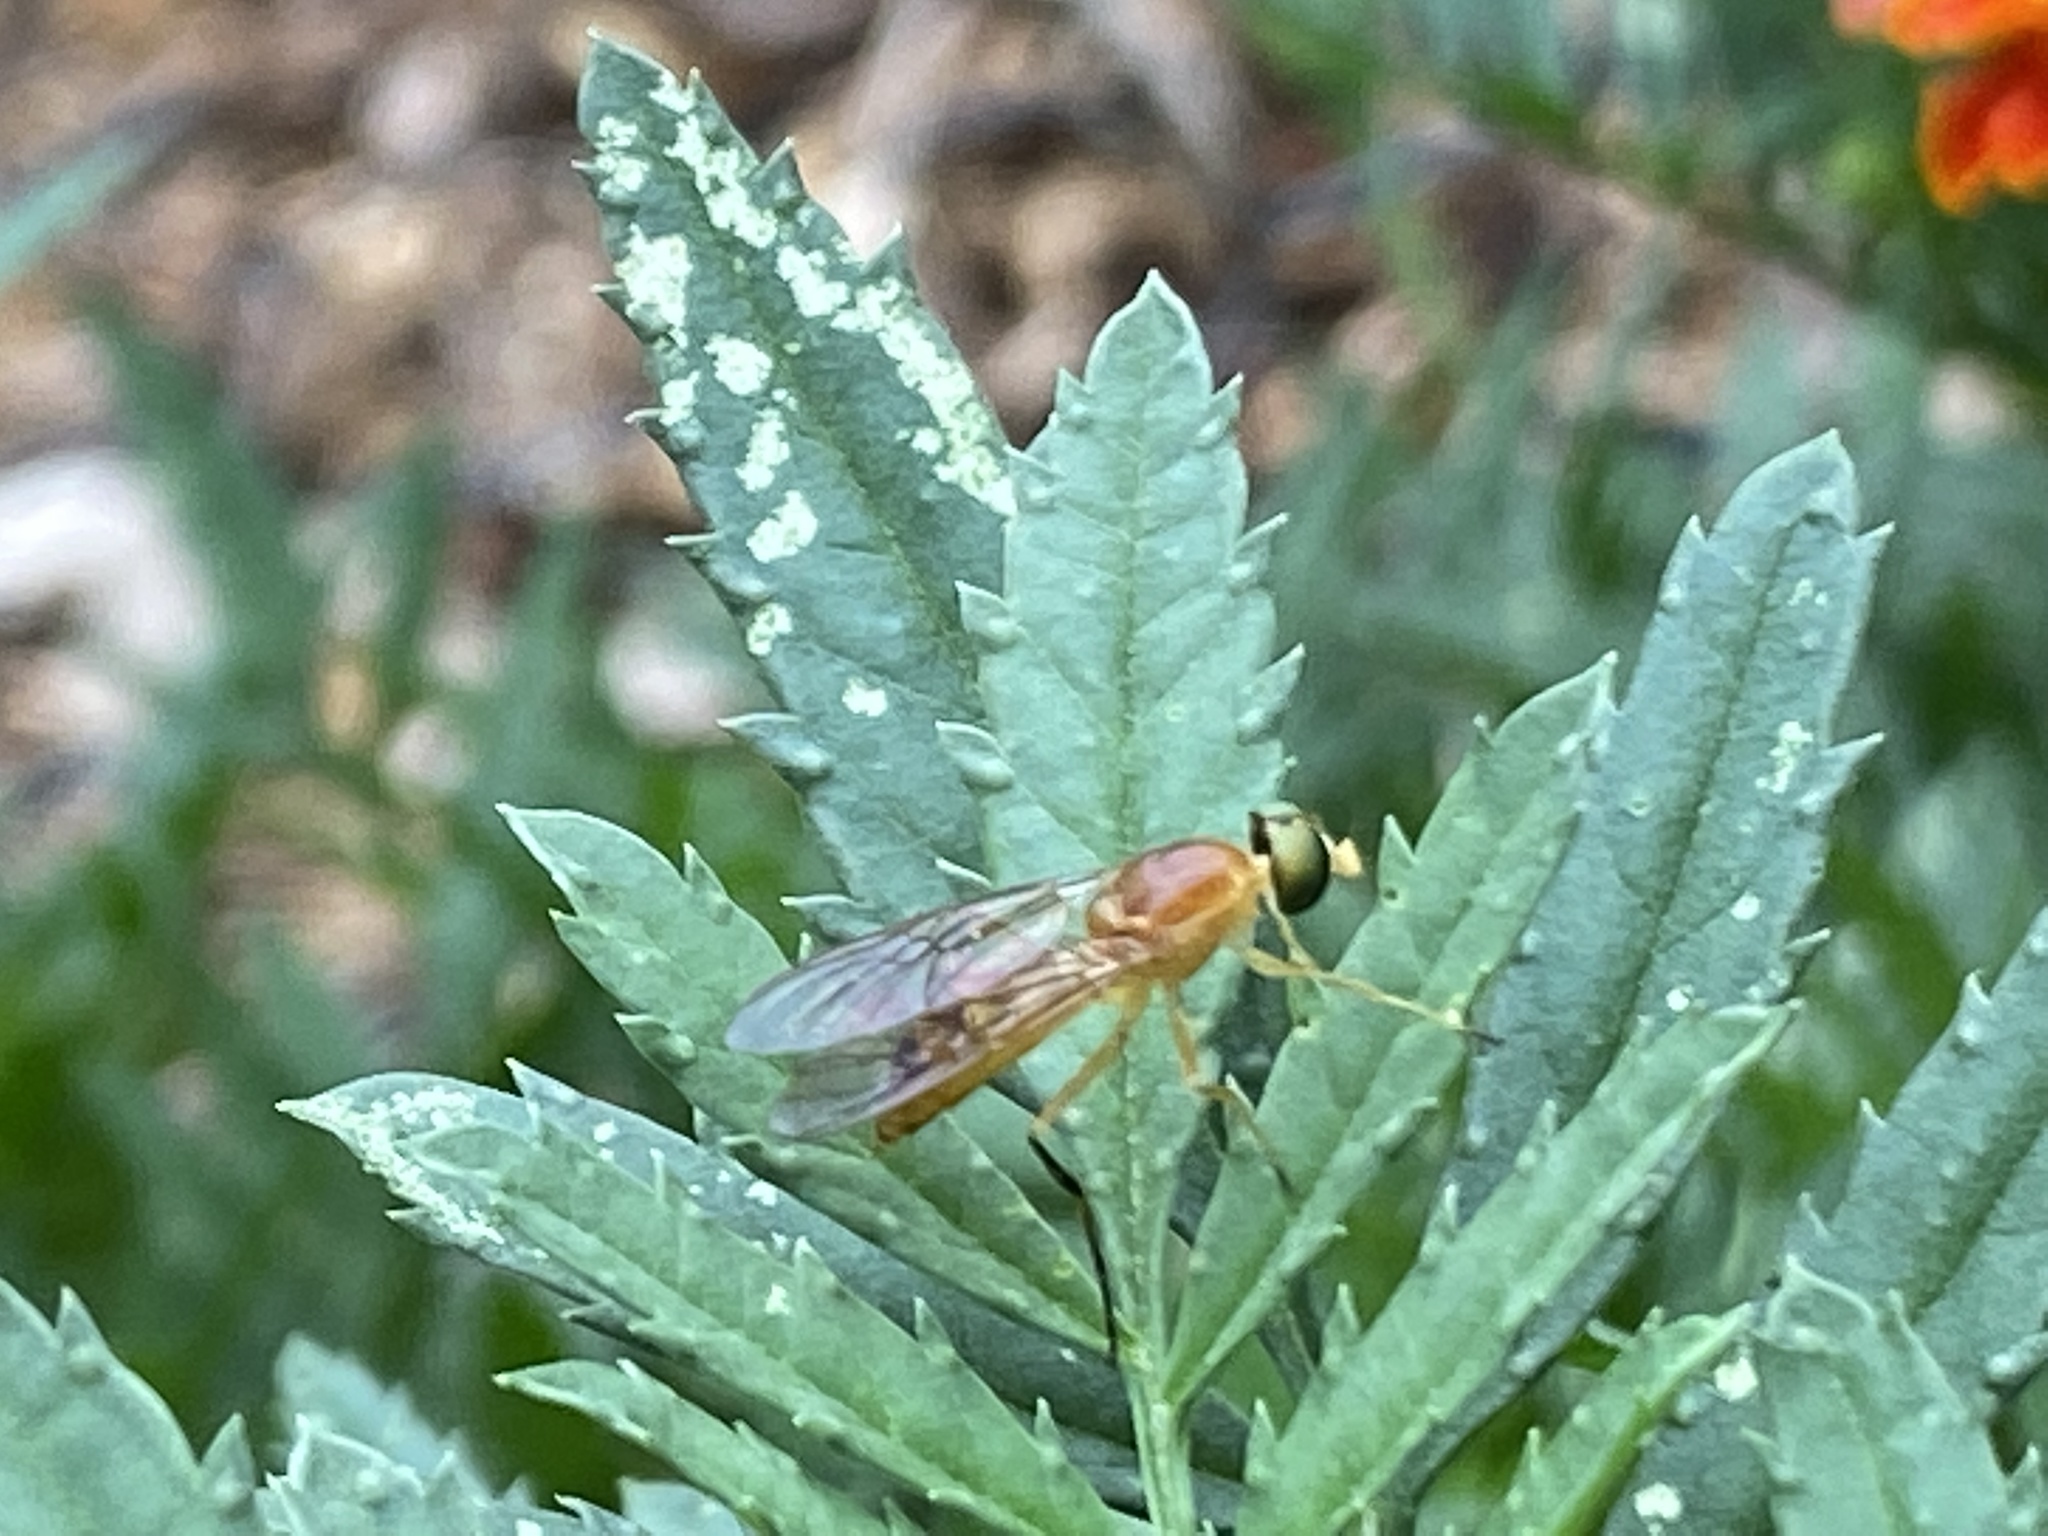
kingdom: Animalia
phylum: Arthropoda
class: Insecta
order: Diptera
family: Stratiomyidae
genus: Ptecticus
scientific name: Ptecticus trivittatus
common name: Compost fly
